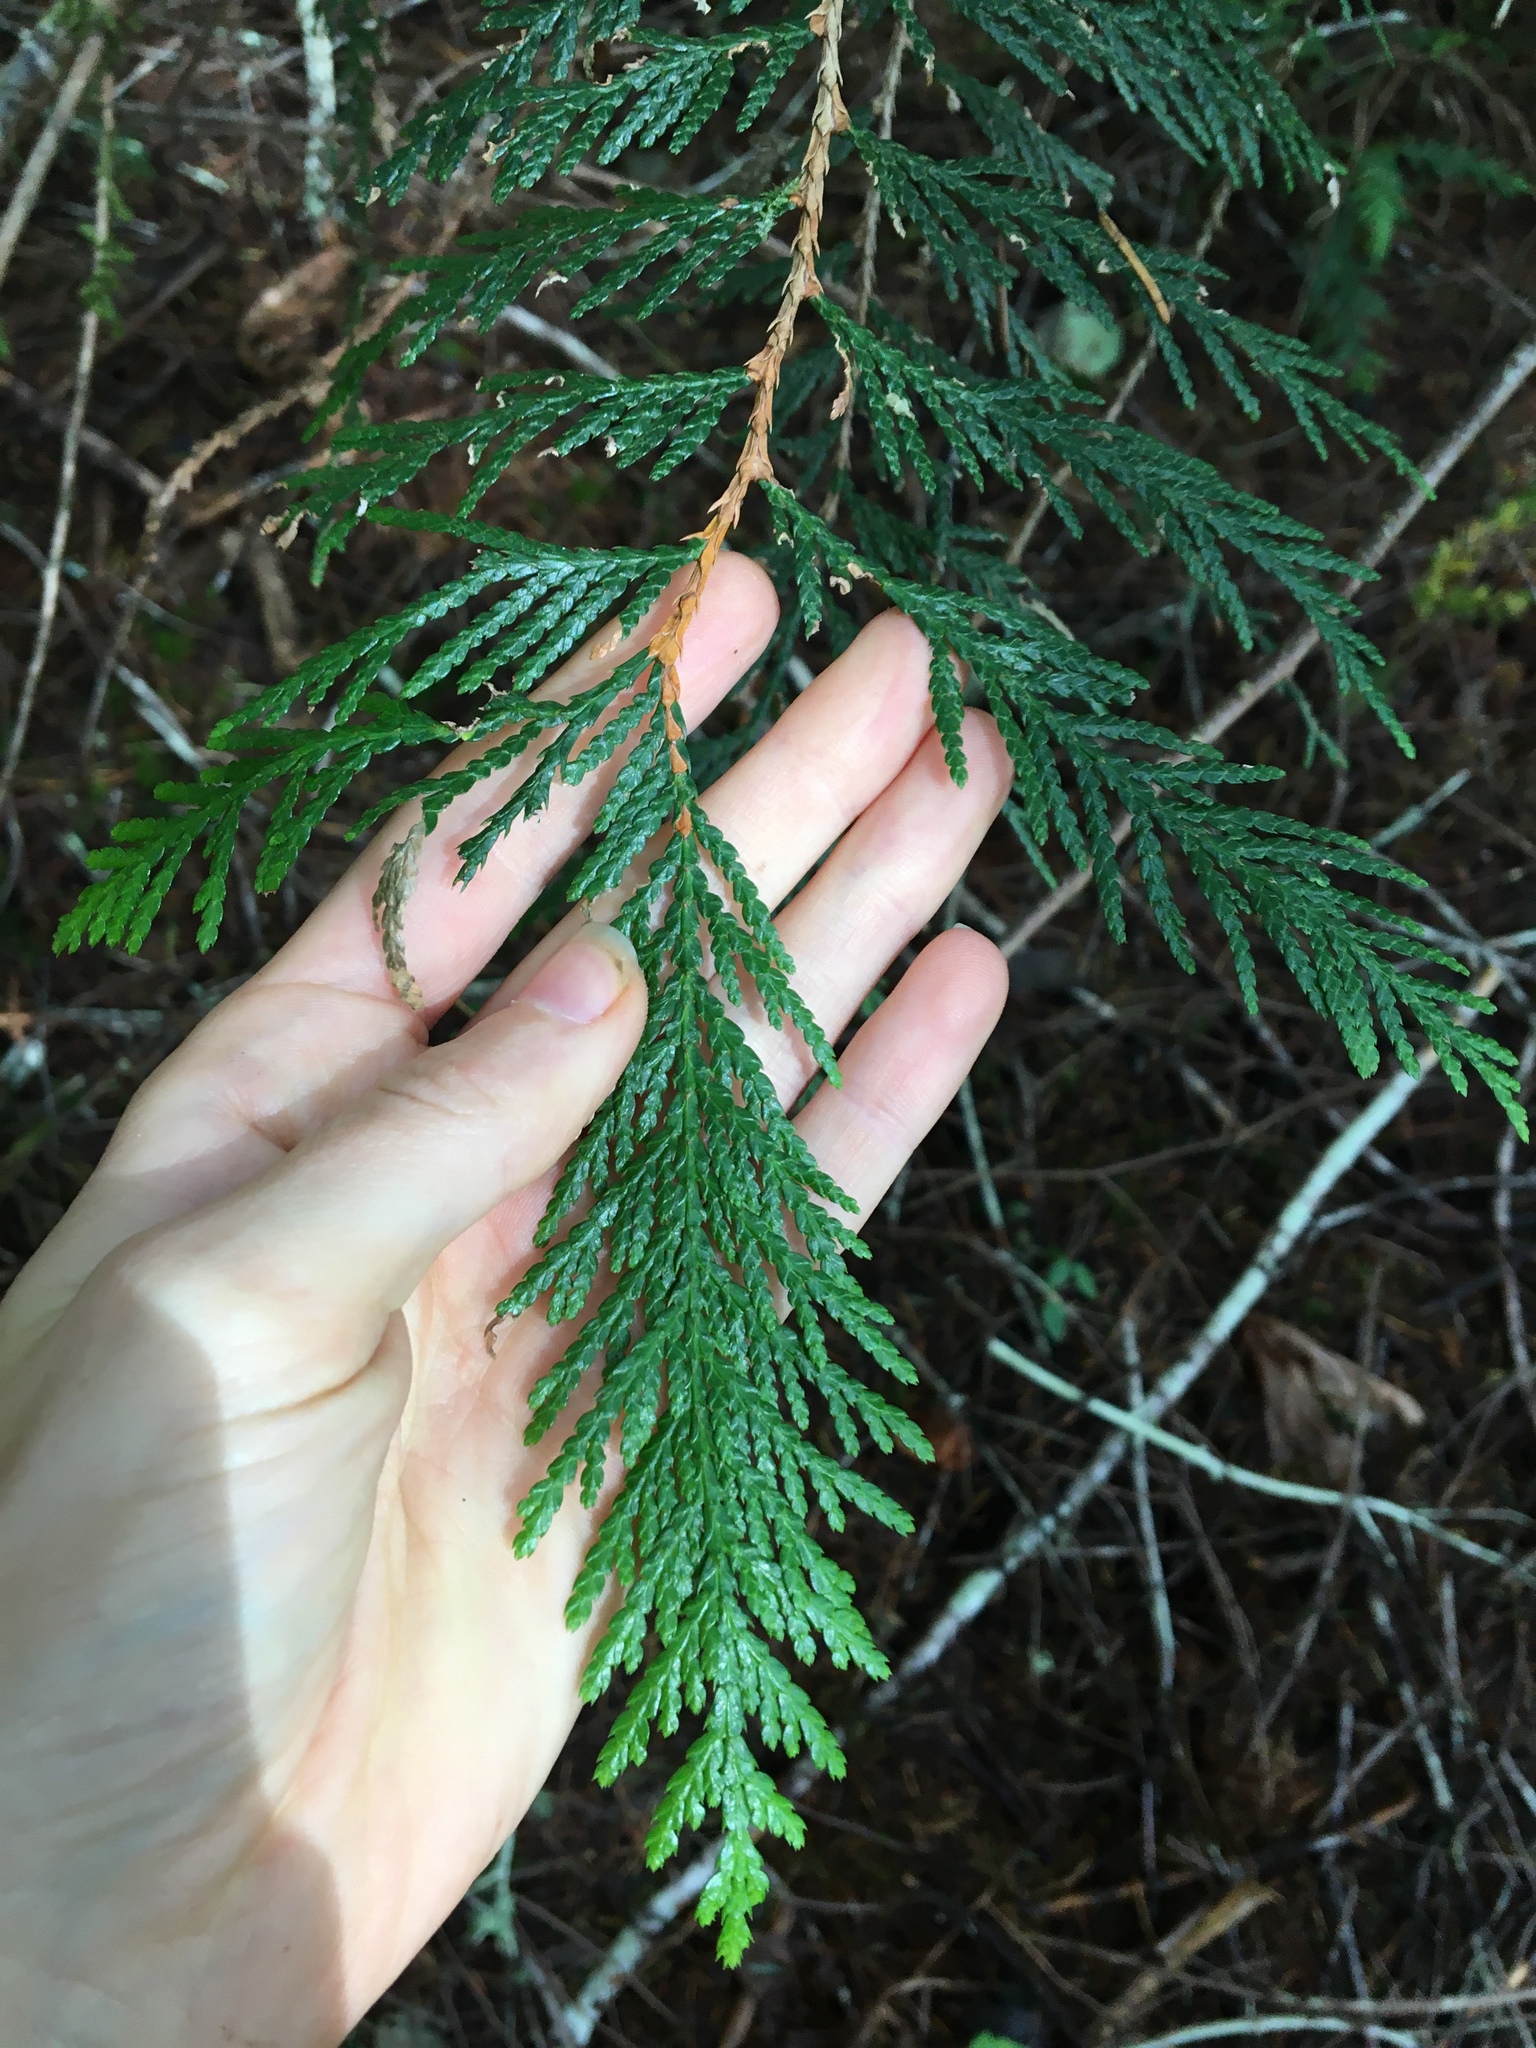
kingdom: Plantae
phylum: Tracheophyta
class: Pinopsida
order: Pinales
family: Cupressaceae
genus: Thuja
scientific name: Thuja plicata
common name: Western red-cedar
